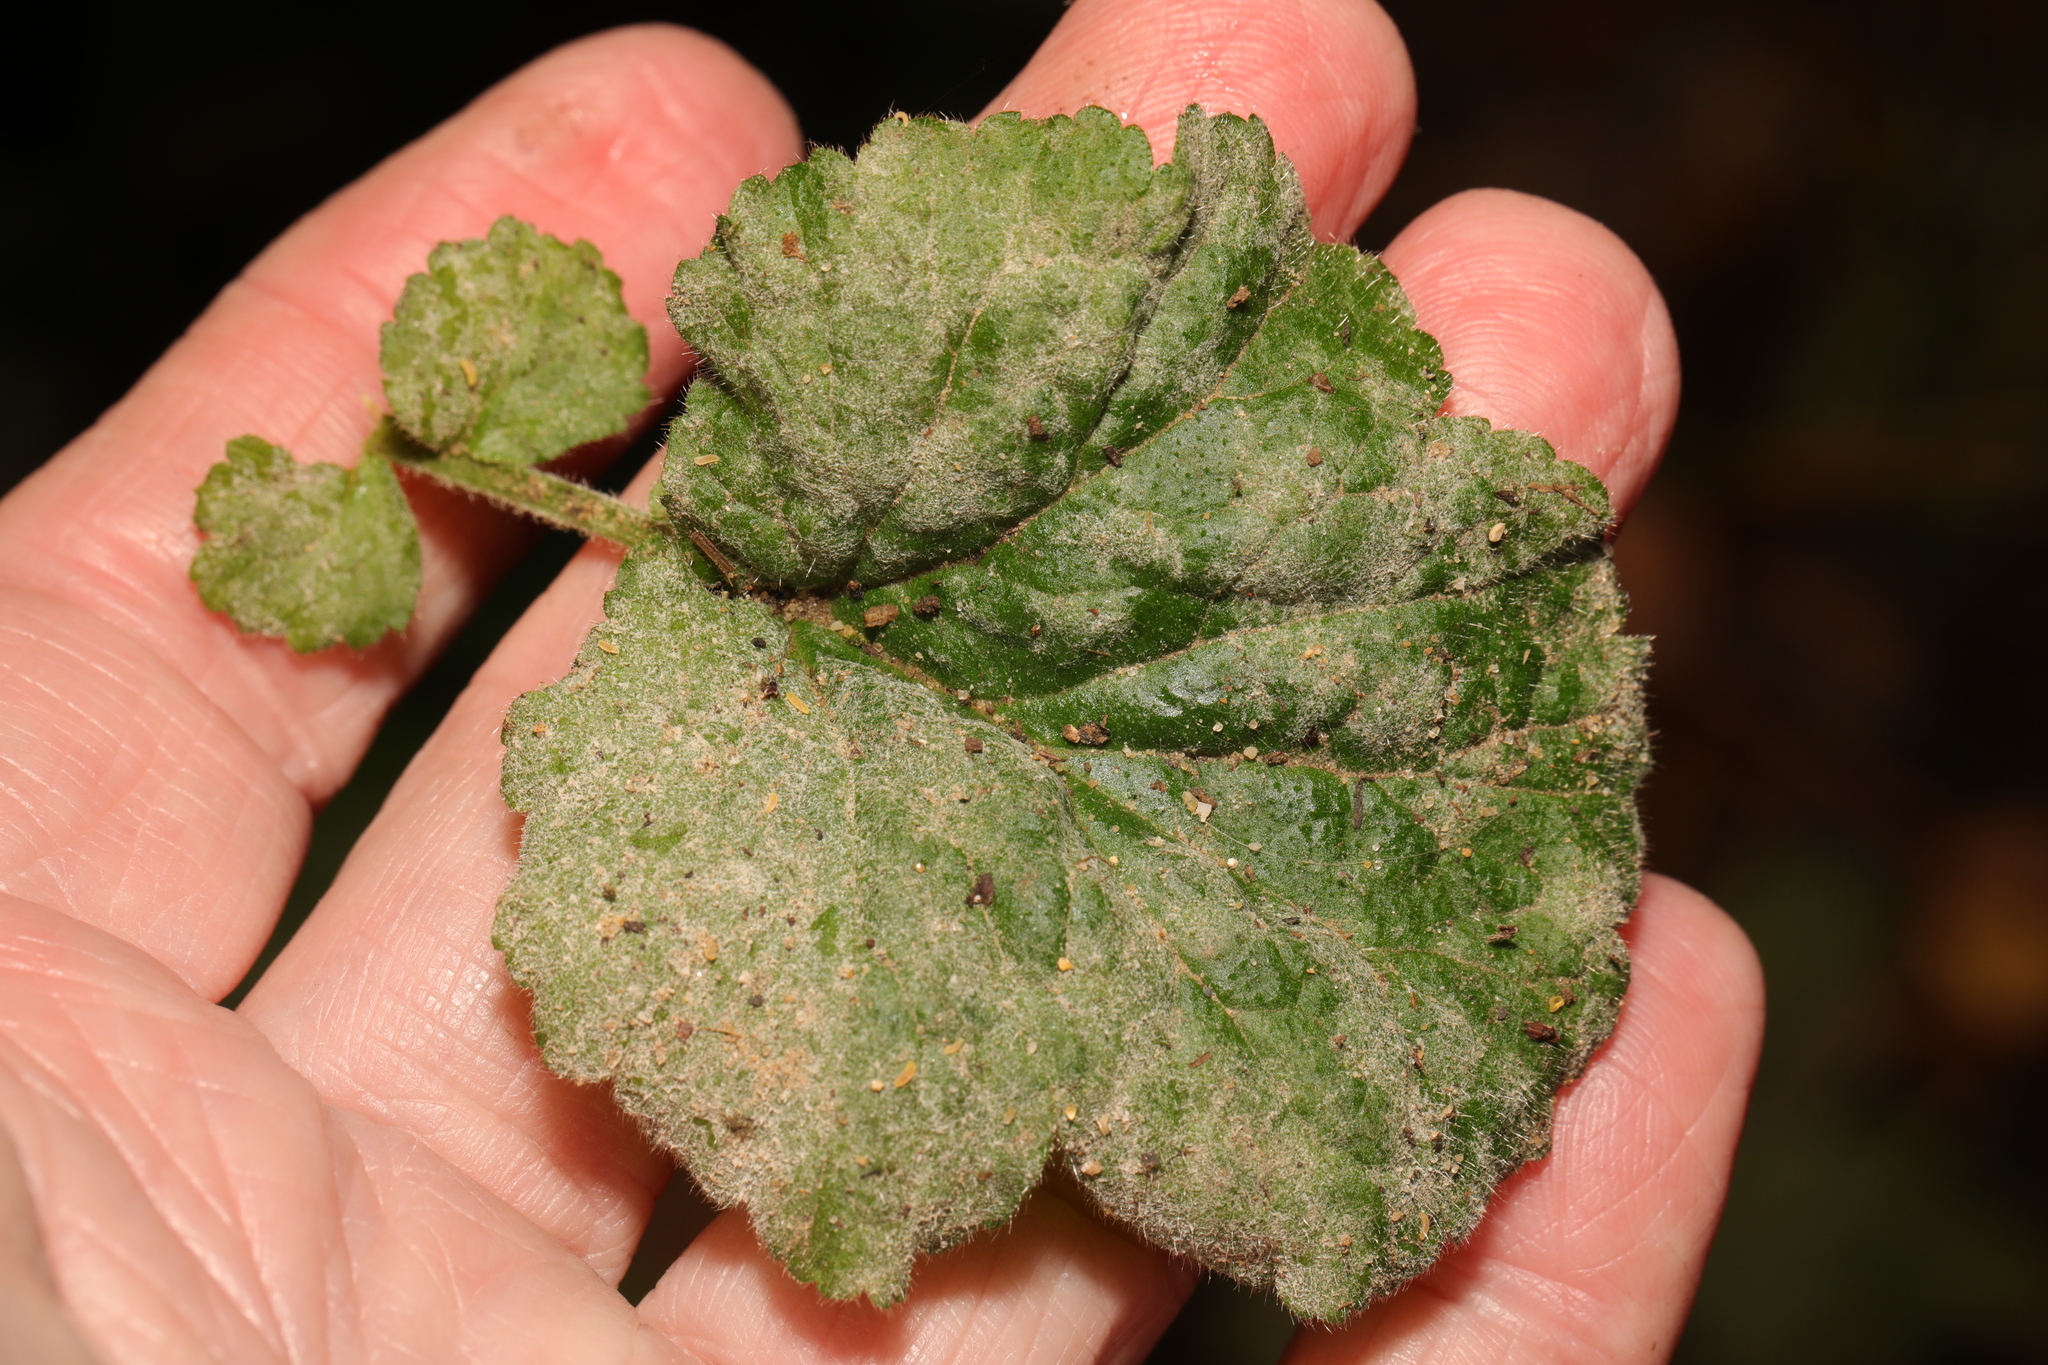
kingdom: Fungi
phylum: Ascomycota
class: Leotiomycetes
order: Helotiales
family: Erysiphaceae
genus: Podosphaera
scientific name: Podosphaera aphanis
